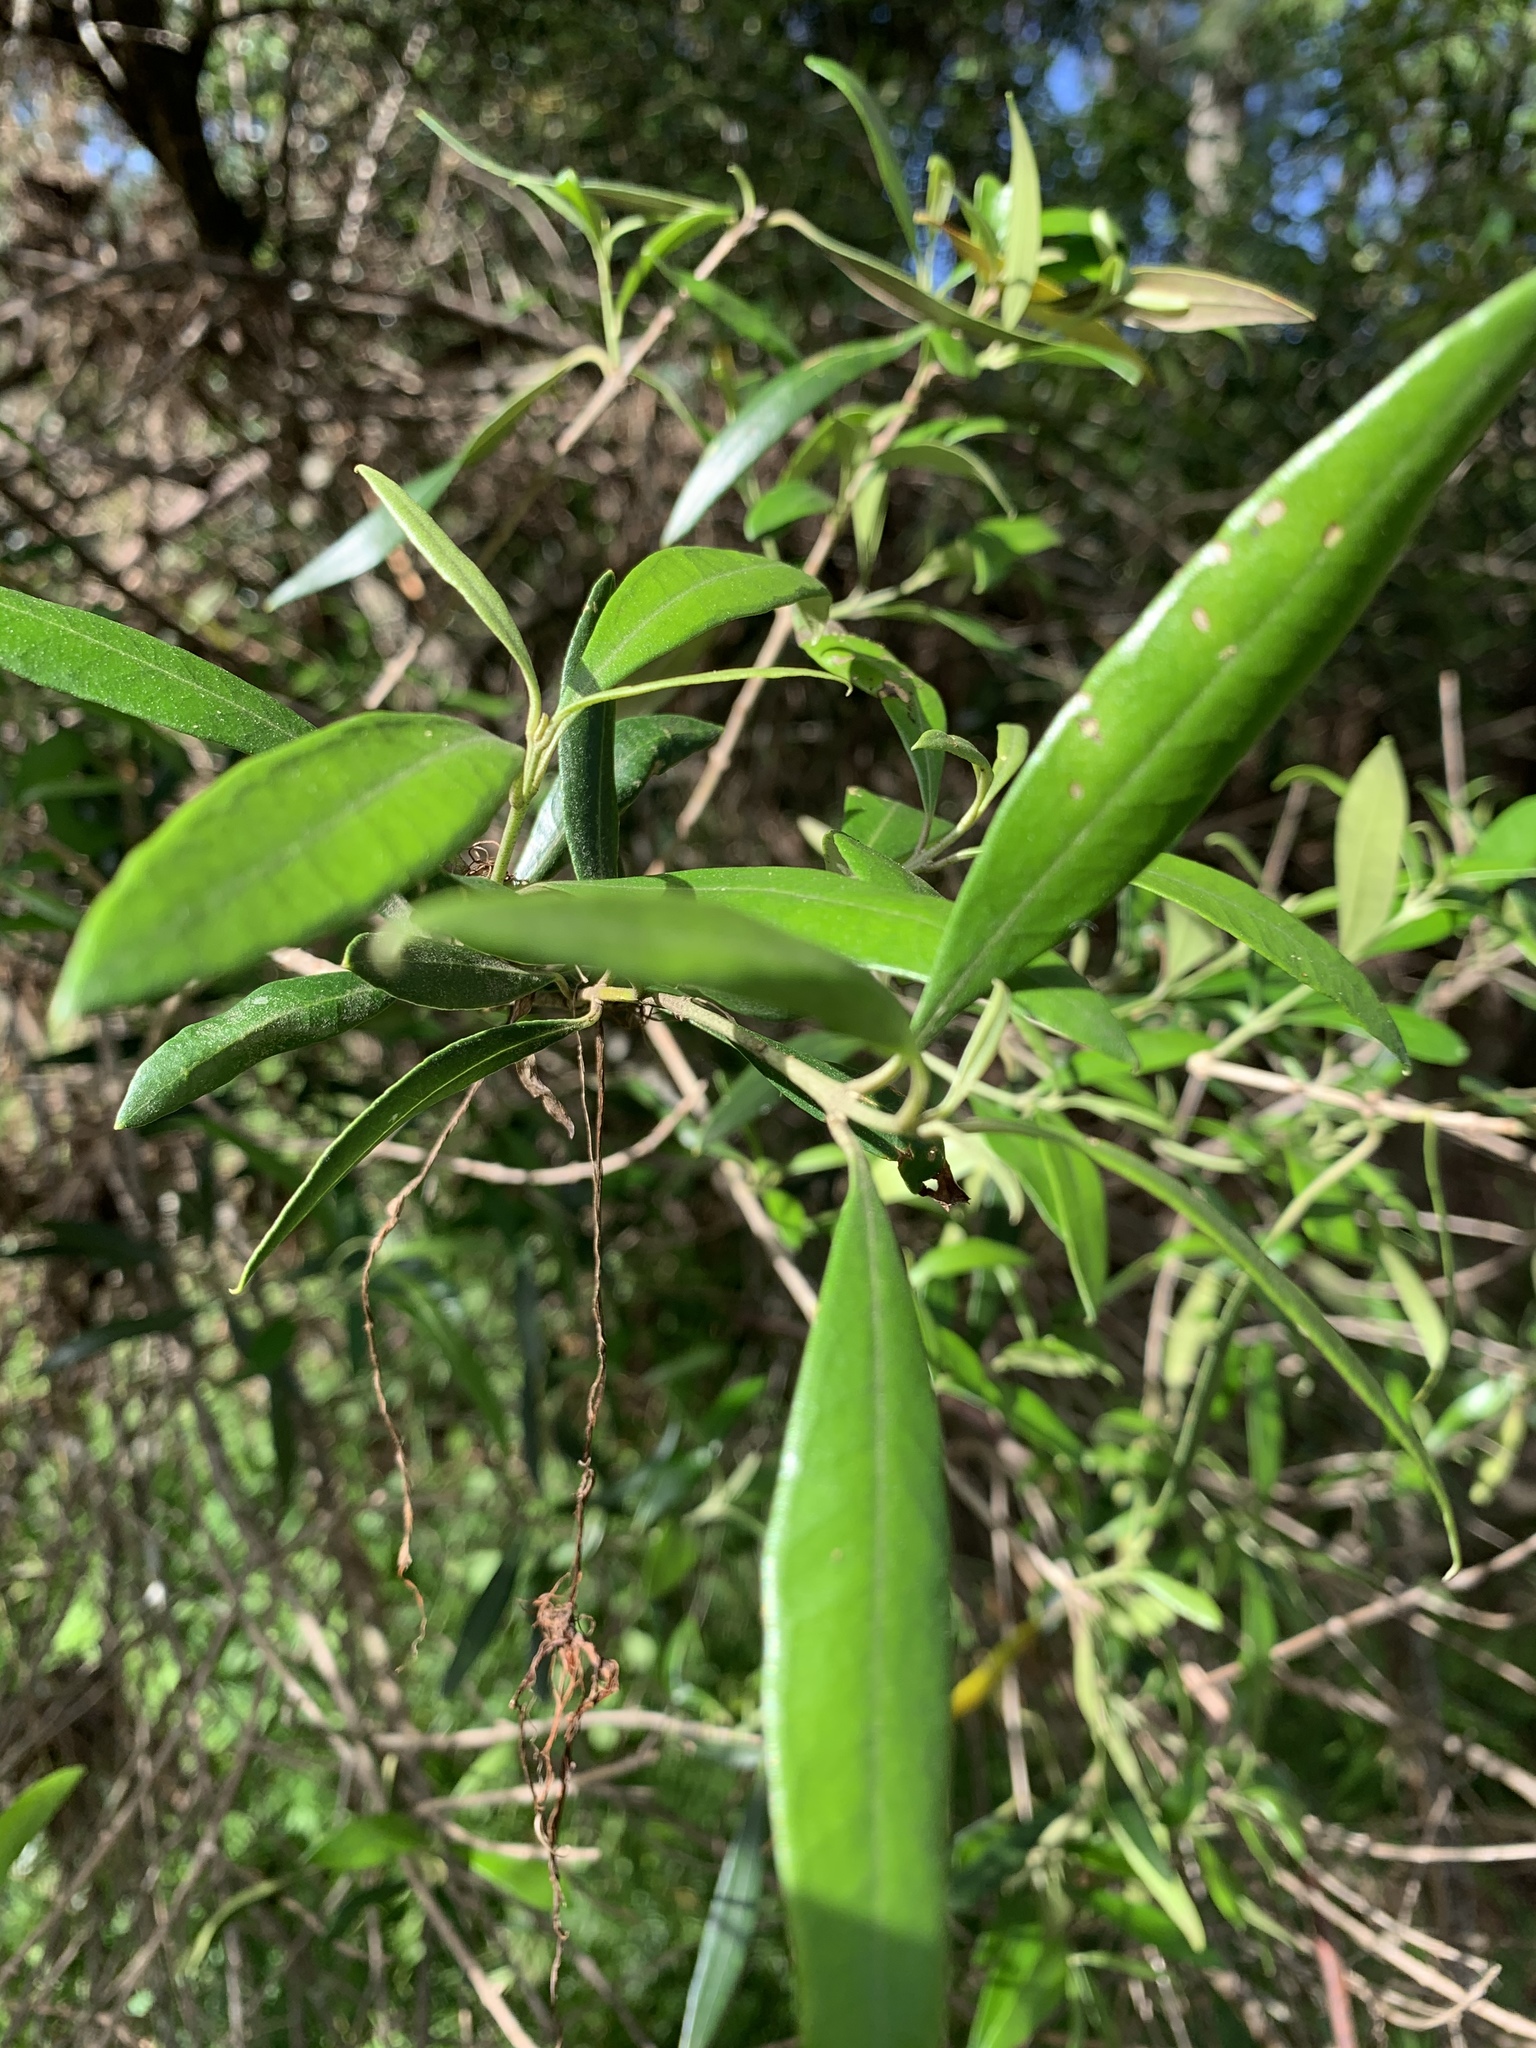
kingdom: Plantae
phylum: Tracheophyta
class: Magnoliopsida
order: Lamiales
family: Oleaceae
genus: Olea
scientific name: Olea europaea
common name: Olive
